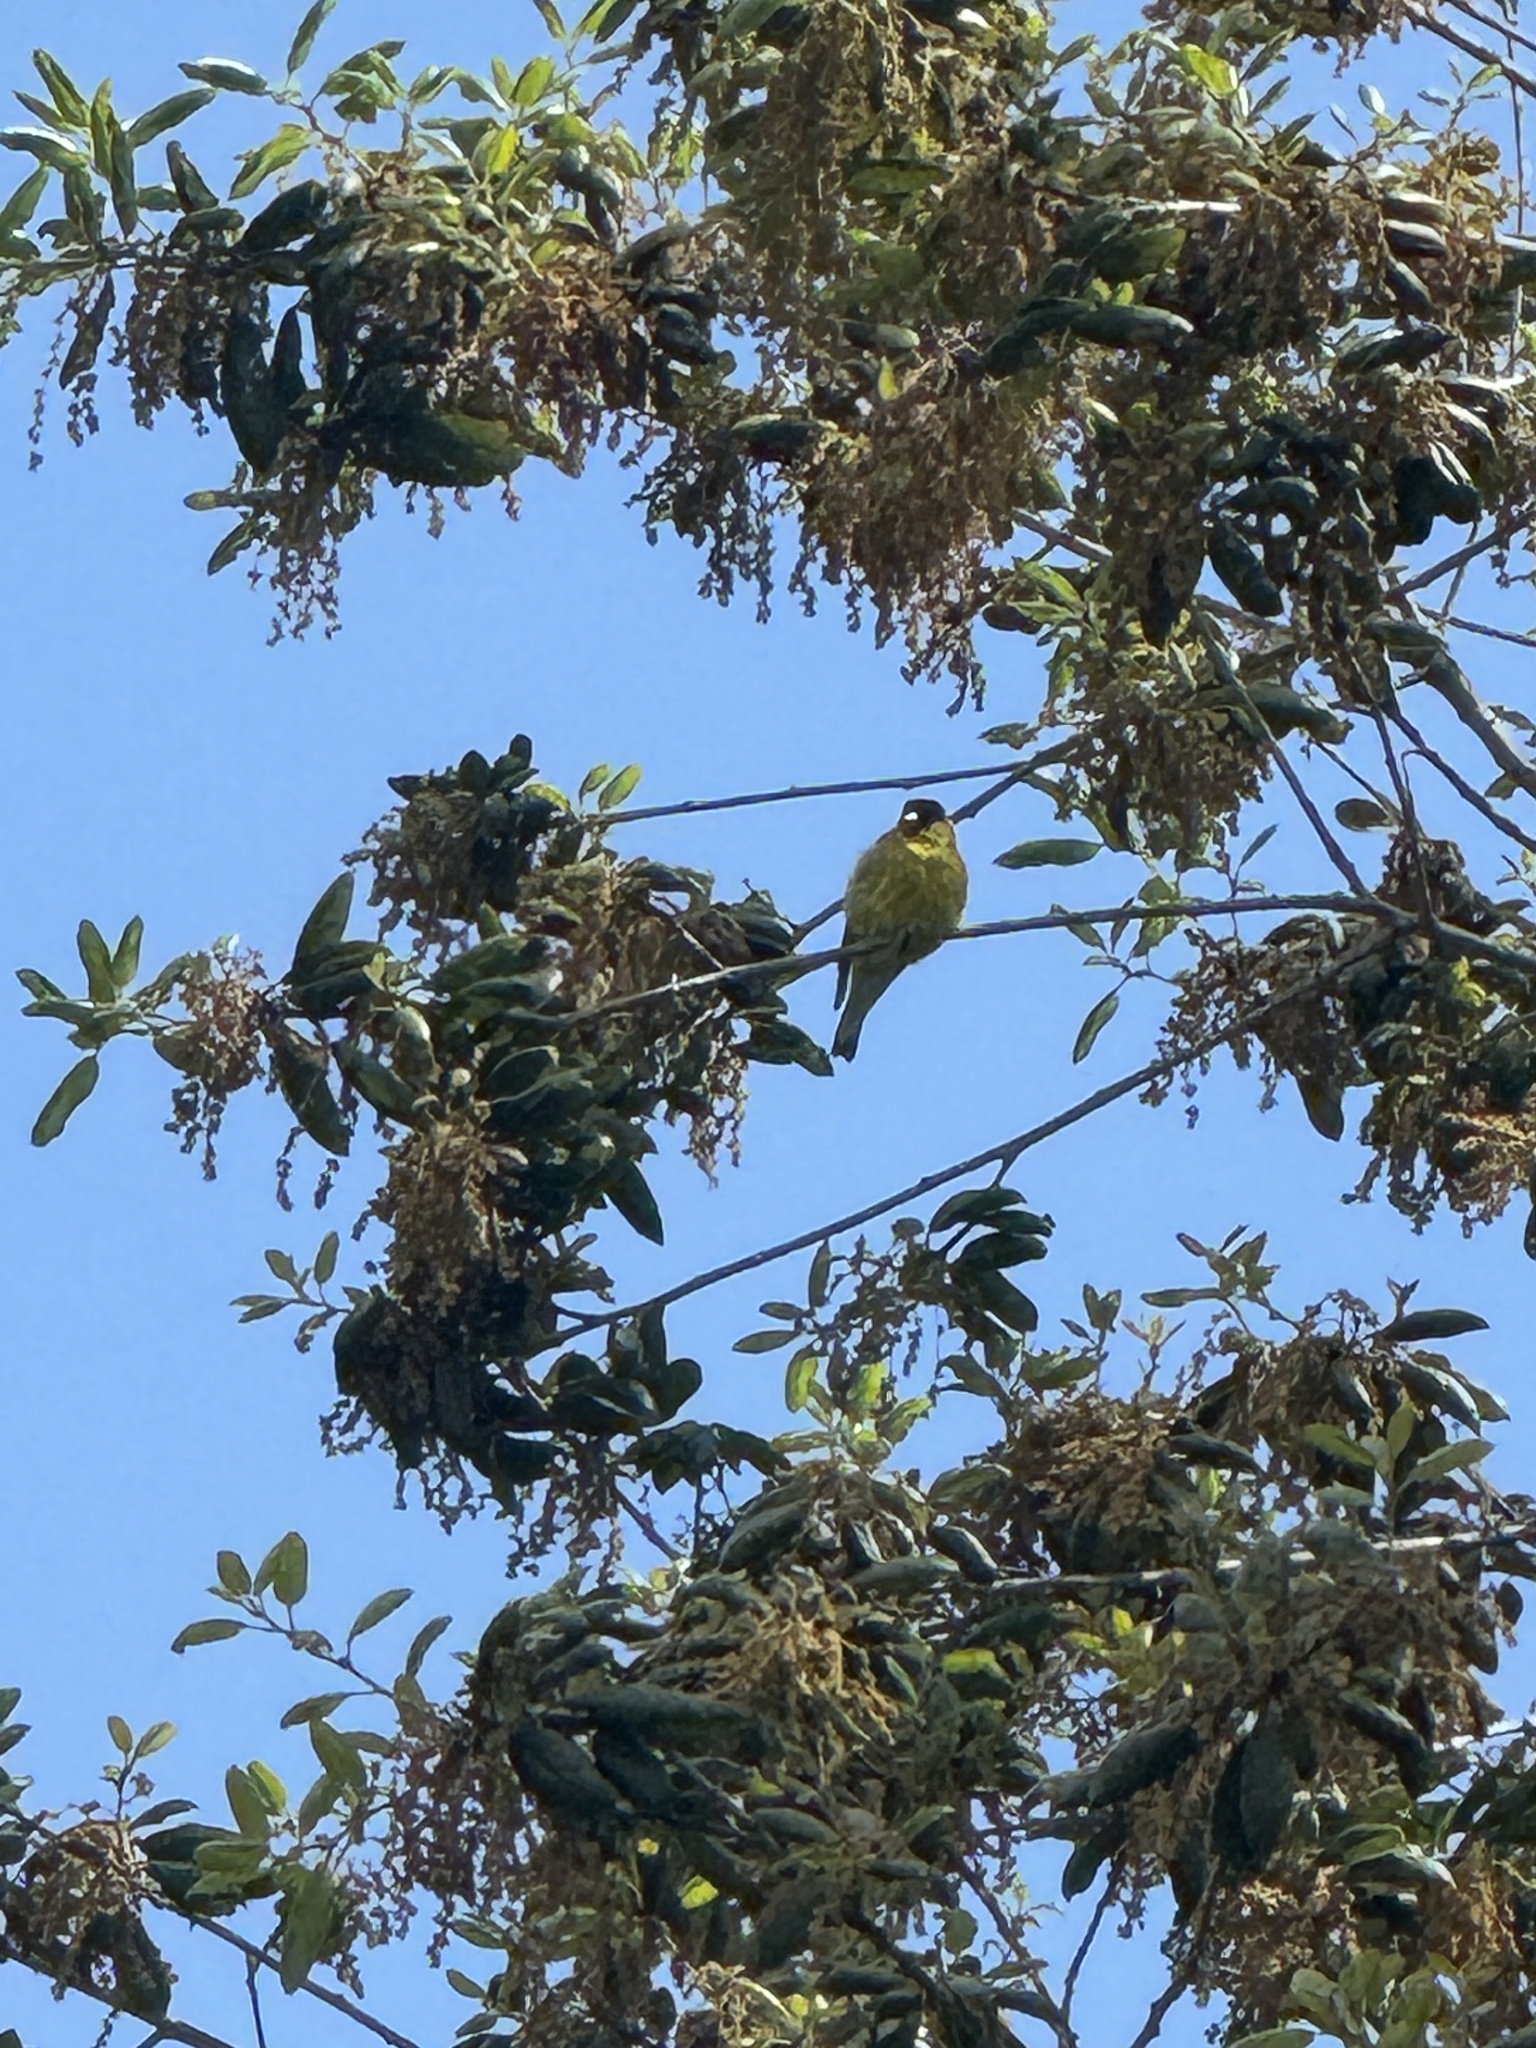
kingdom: Animalia
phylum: Chordata
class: Aves
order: Passeriformes
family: Fringillidae
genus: Spinus
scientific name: Spinus psaltria
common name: Lesser goldfinch
